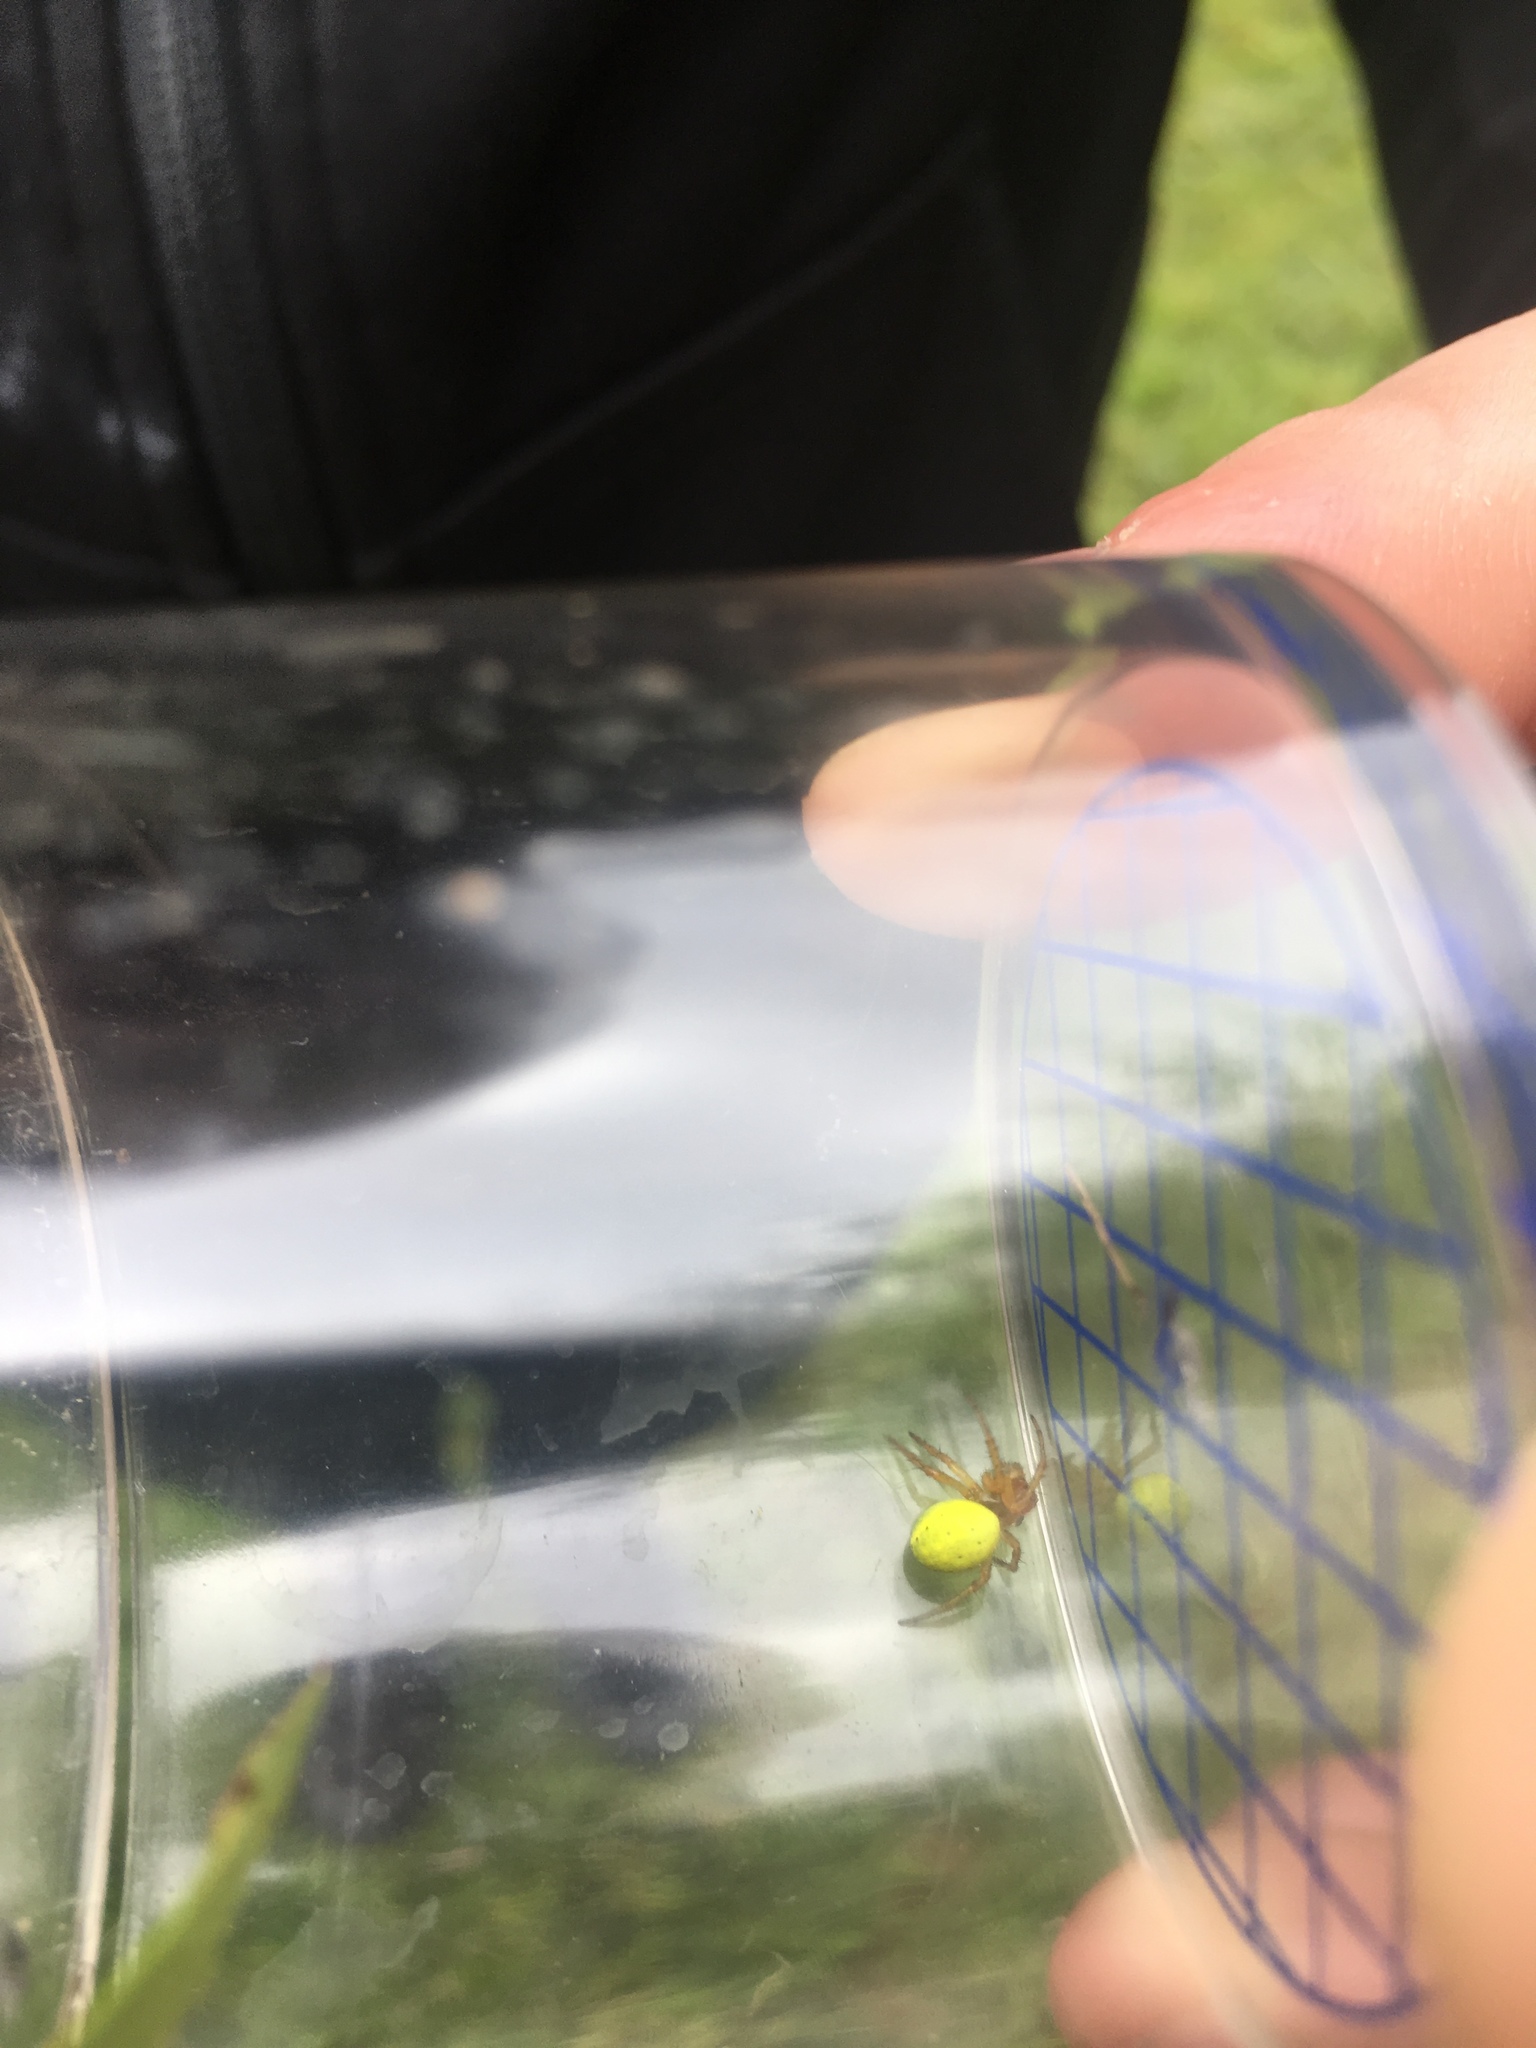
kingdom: Animalia
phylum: Arthropoda
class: Arachnida
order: Araneae
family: Araneidae
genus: Araniella
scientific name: Araniella
